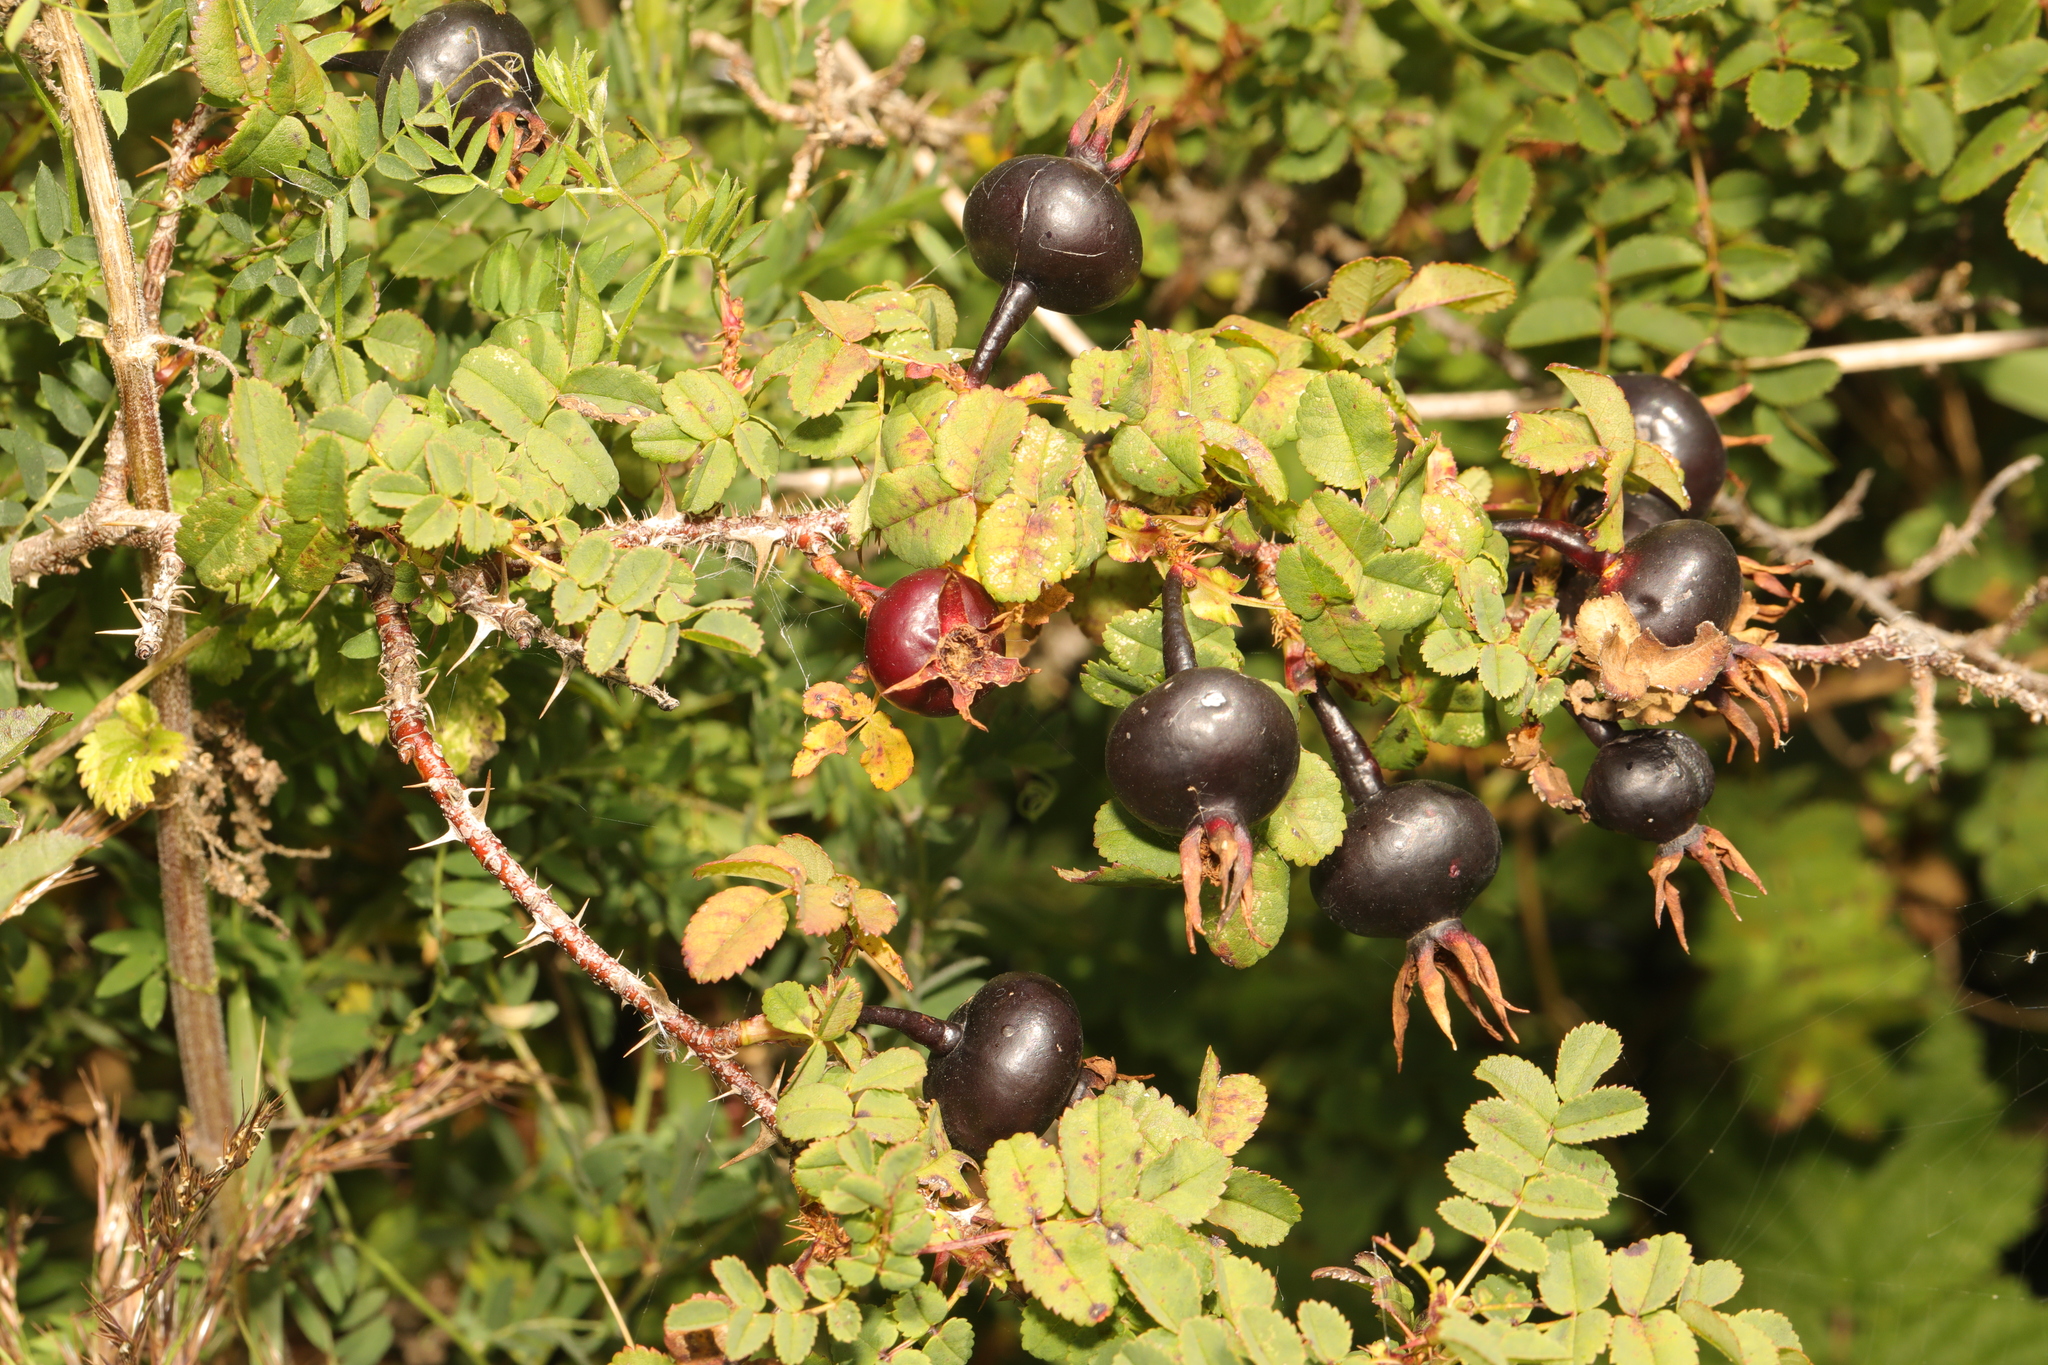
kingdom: Plantae
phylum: Tracheophyta
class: Magnoliopsida
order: Rosales
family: Rosaceae
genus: Rosa
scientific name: Rosa spinosissima
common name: Burnet rose
